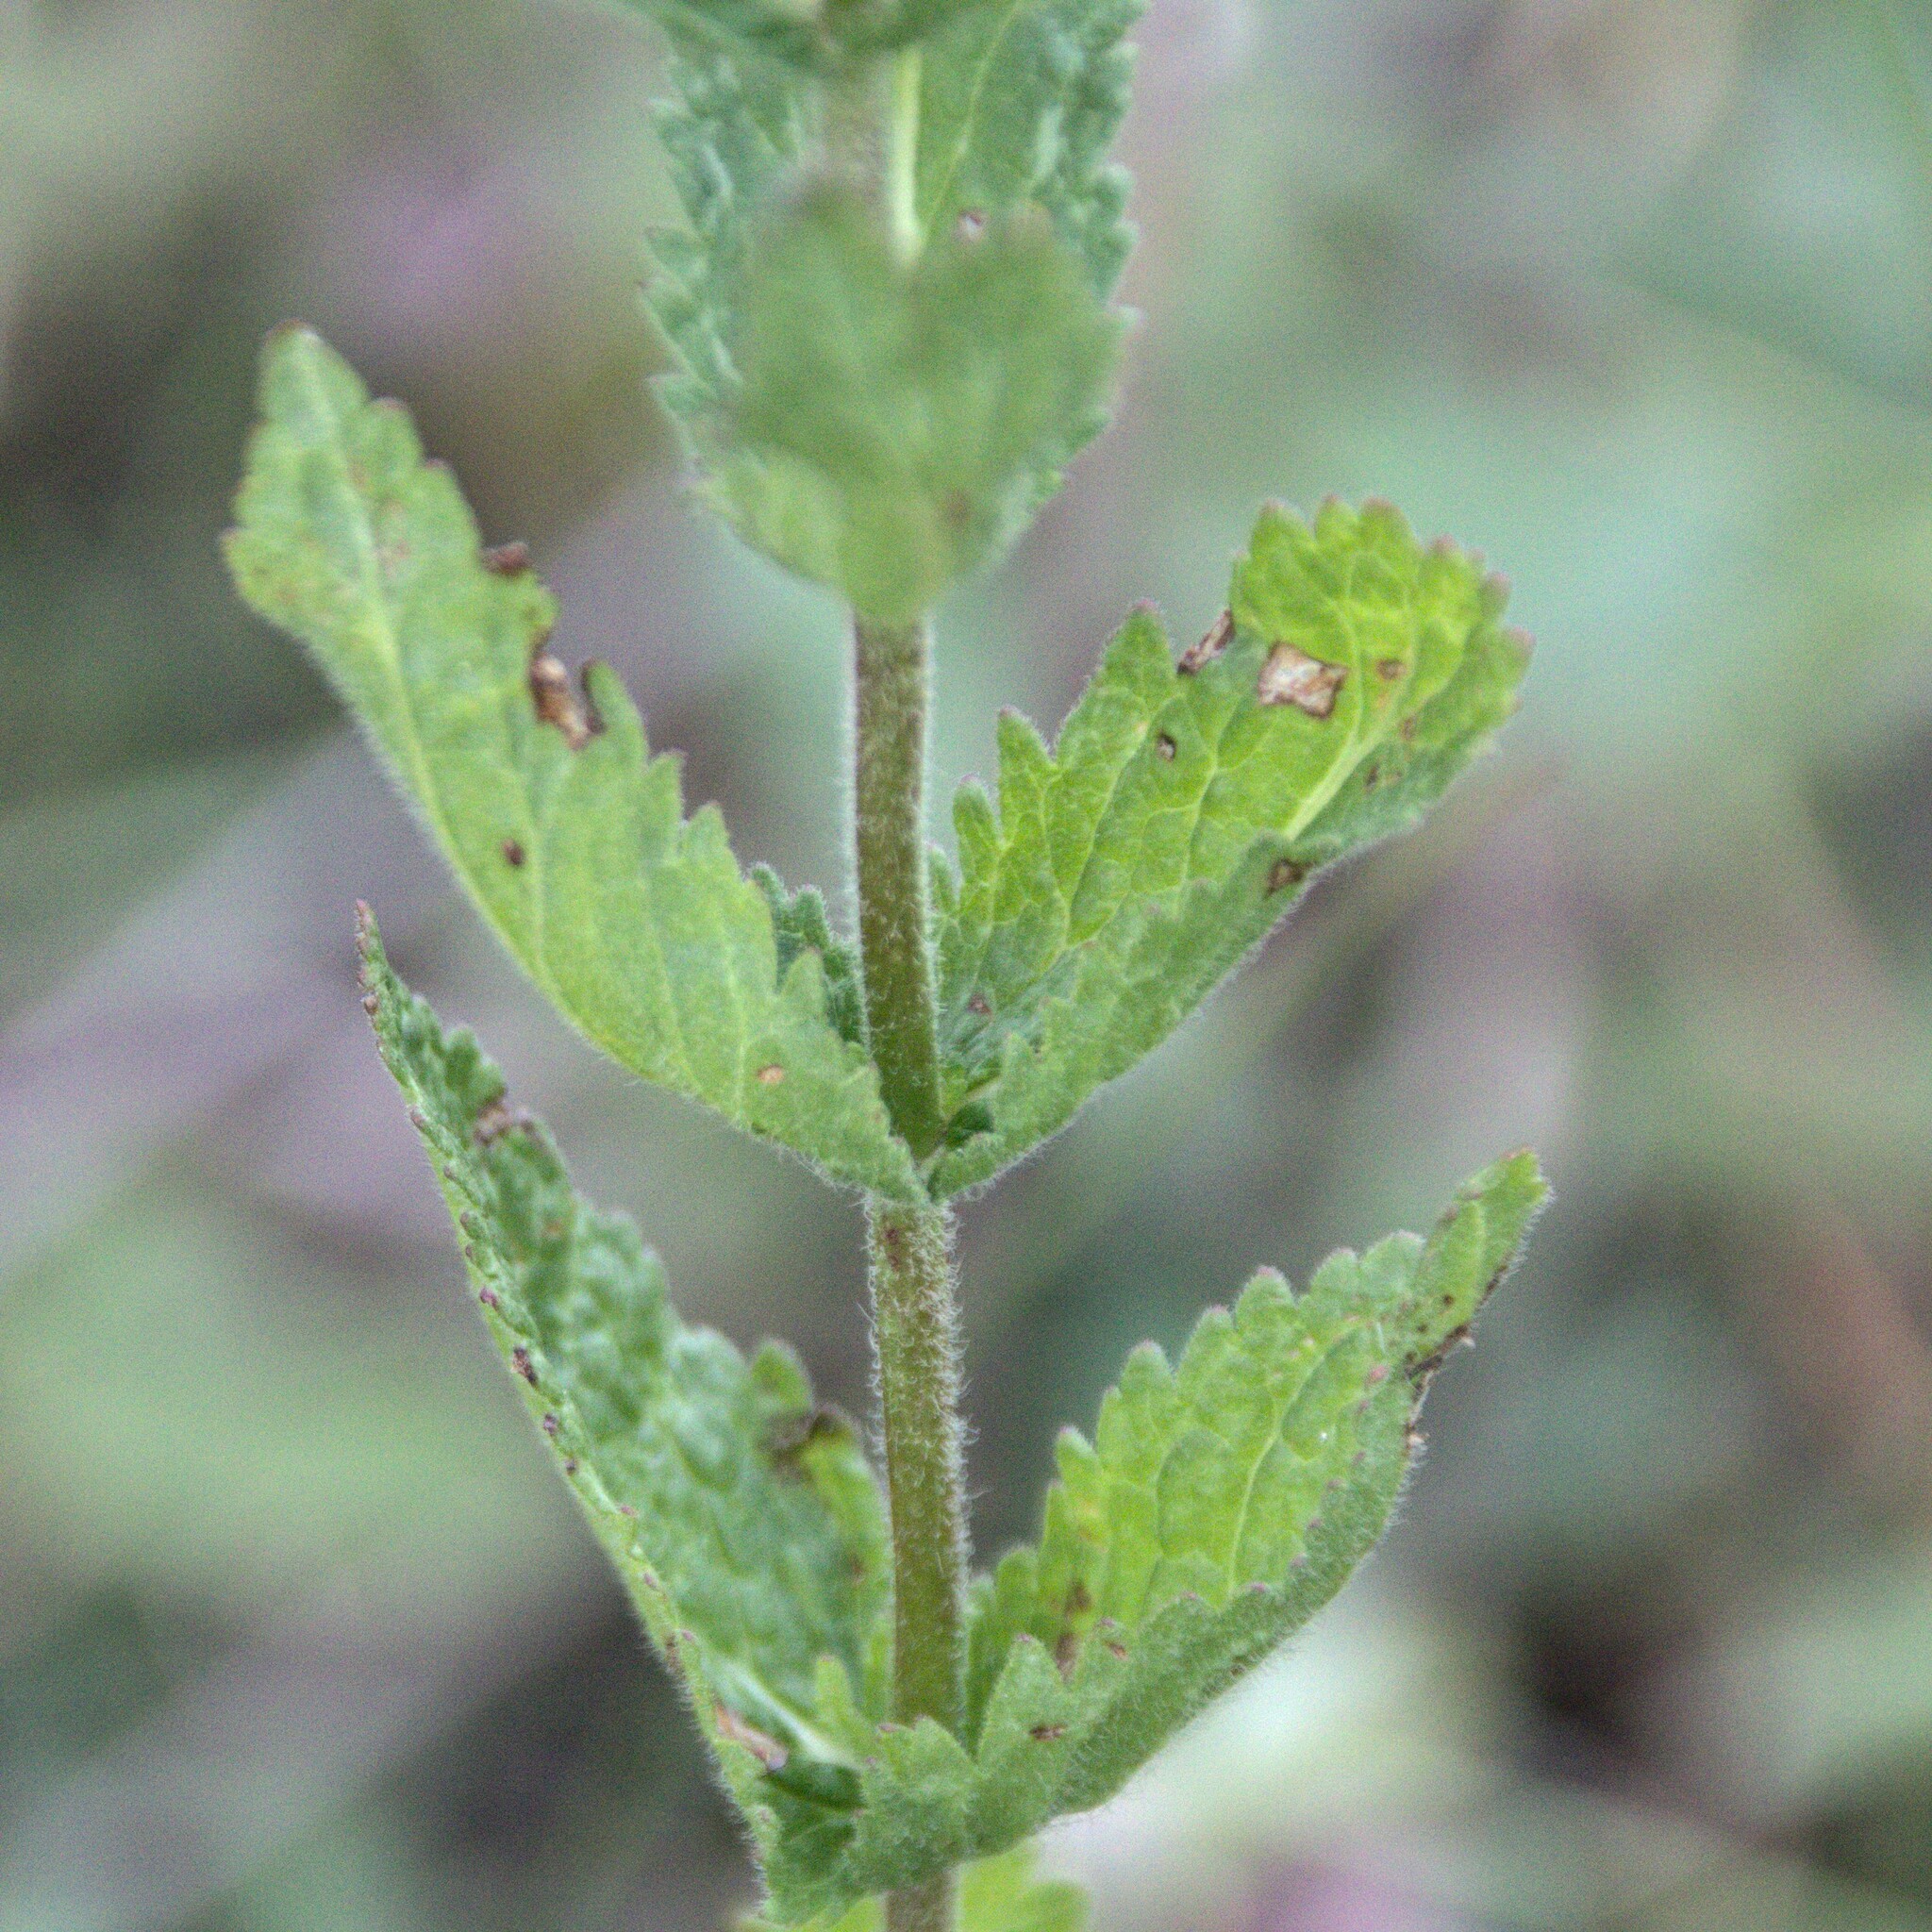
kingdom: Plantae
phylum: Tracheophyta
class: Magnoliopsida
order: Lamiales
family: Plantaginaceae
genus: Veronica
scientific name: Veronica teucrium
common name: Large speedwell
